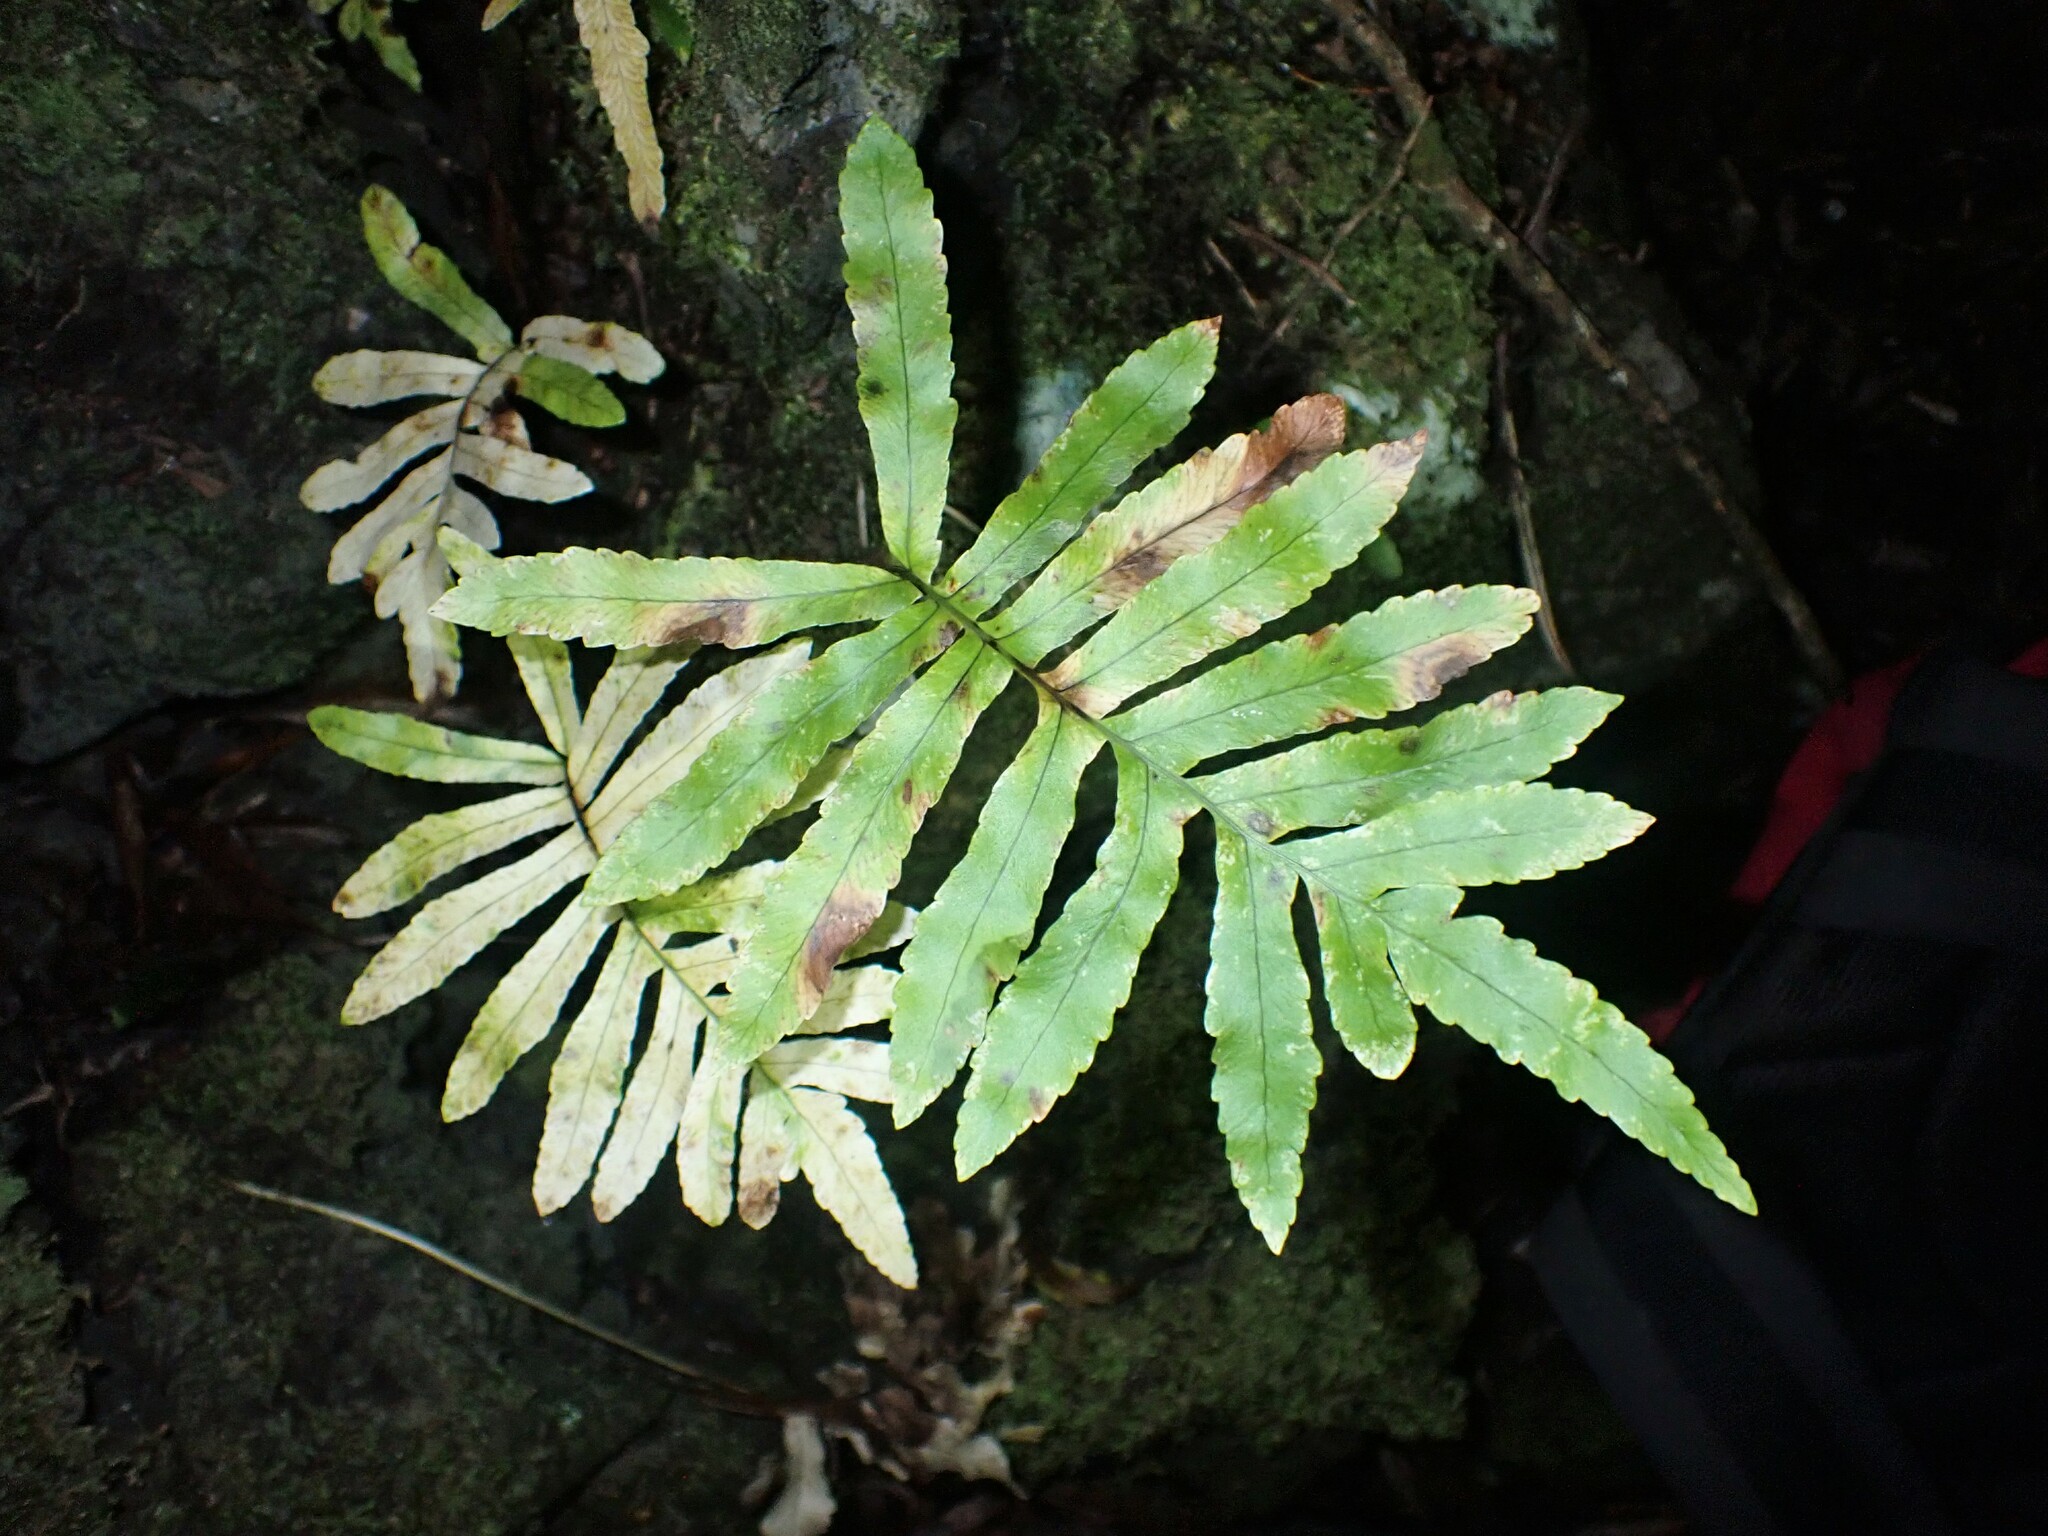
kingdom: Plantae
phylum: Tracheophyta
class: Polypodiopsida
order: Polypodiales
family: Polypodiaceae
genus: Polypodium
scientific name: Polypodium macaronesicum
